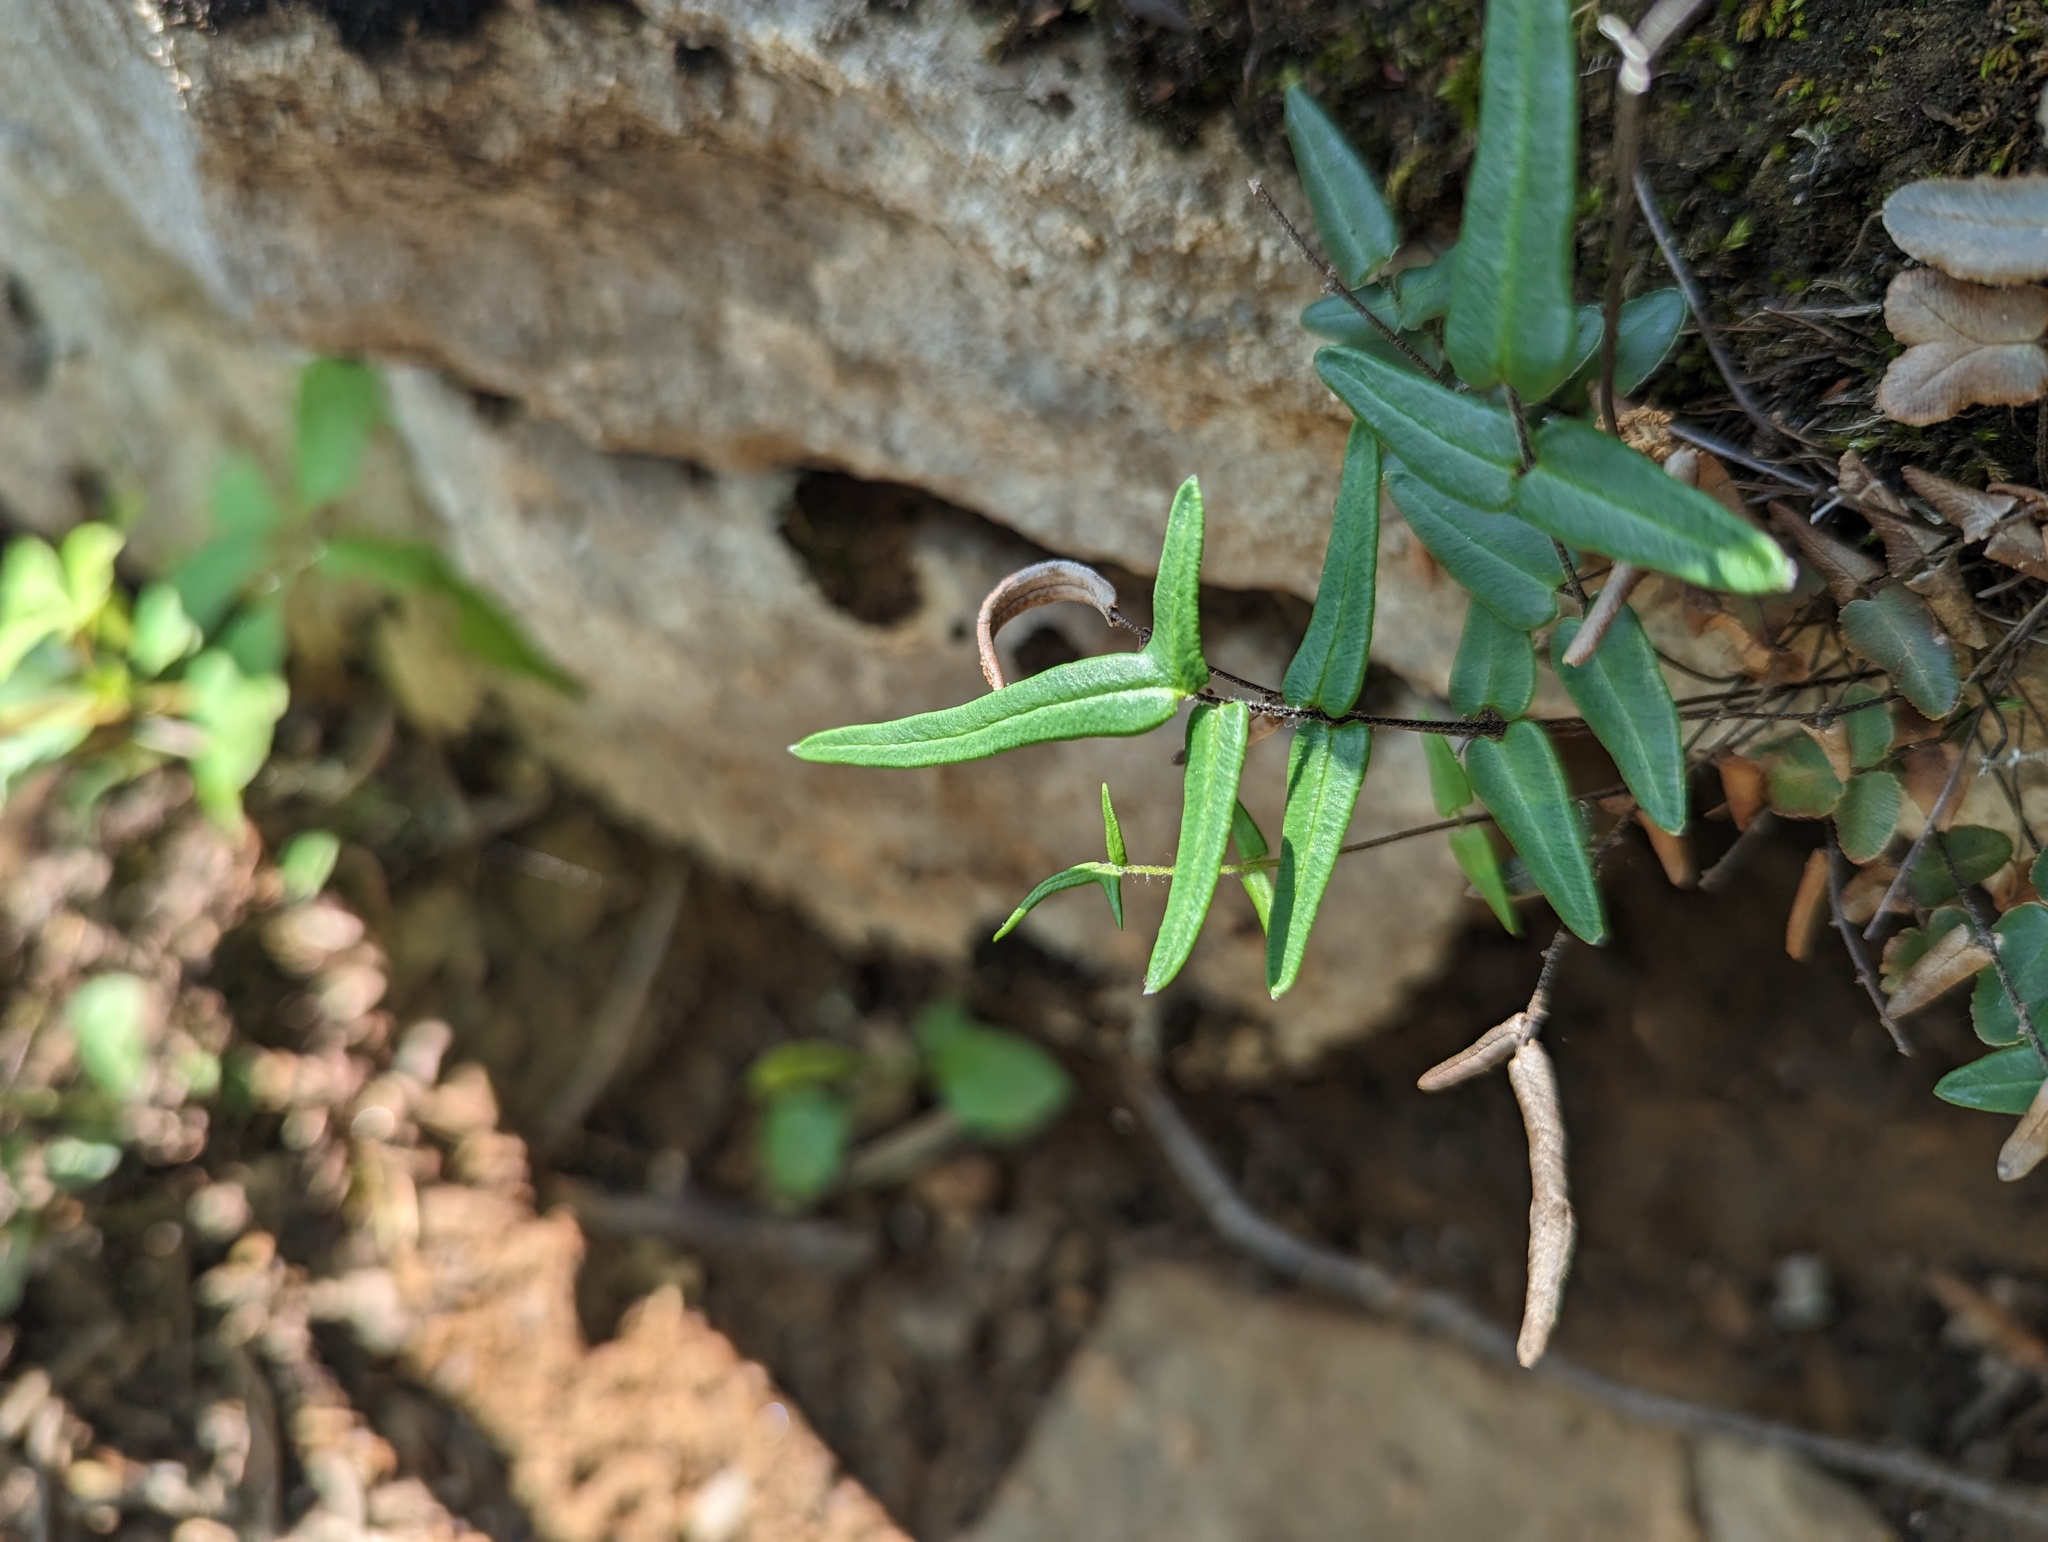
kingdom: Plantae
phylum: Tracheophyta
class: Polypodiopsida
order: Polypodiales
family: Pteridaceae
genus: Pellaea
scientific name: Pellaea atropurpurea
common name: Hairy cliffbrake
